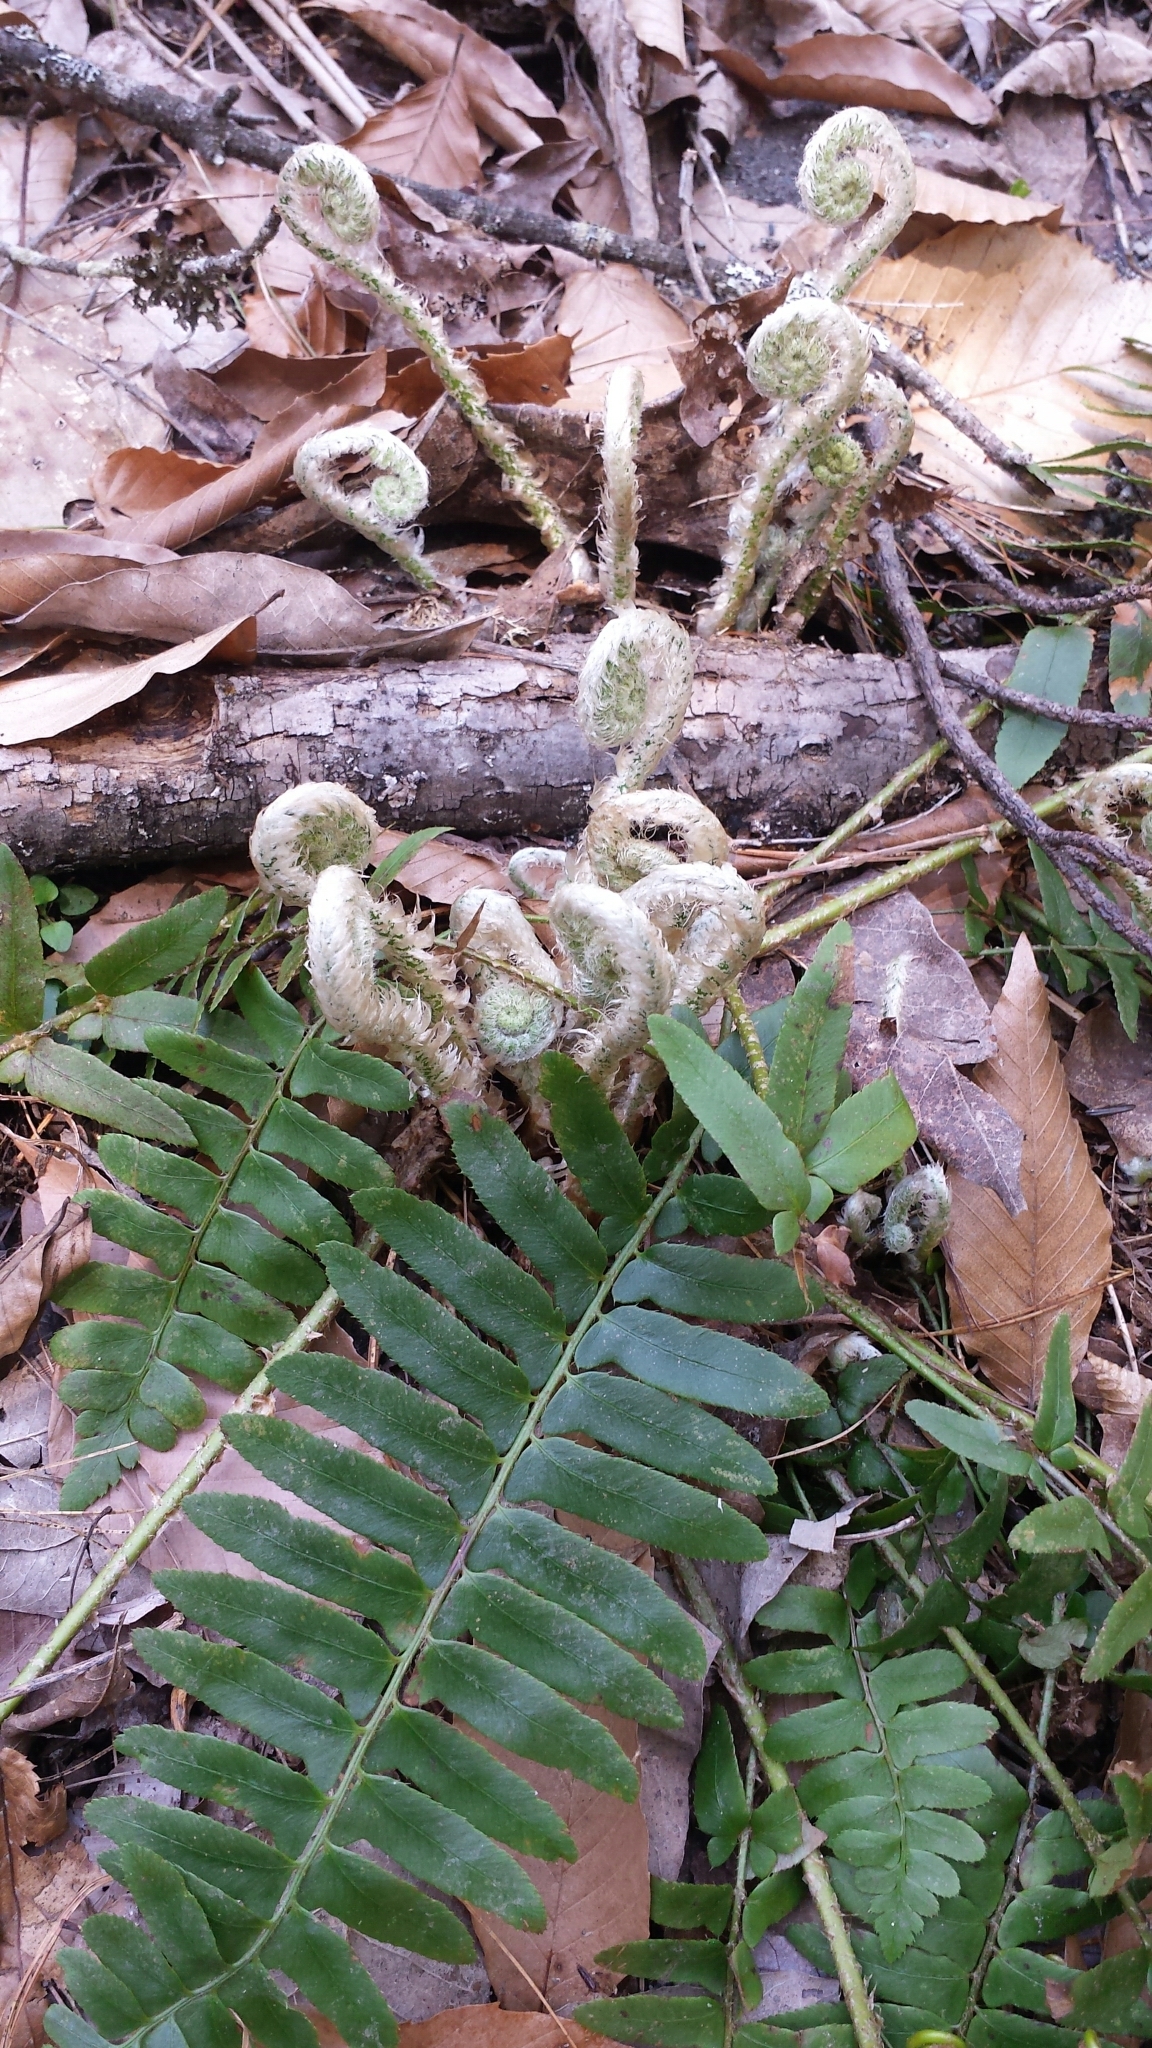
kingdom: Plantae
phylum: Tracheophyta
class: Polypodiopsida
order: Polypodiales
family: Dryopteridaceae
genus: Polystichum
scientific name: Polystichum acrostichoides
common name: Christmas fern
